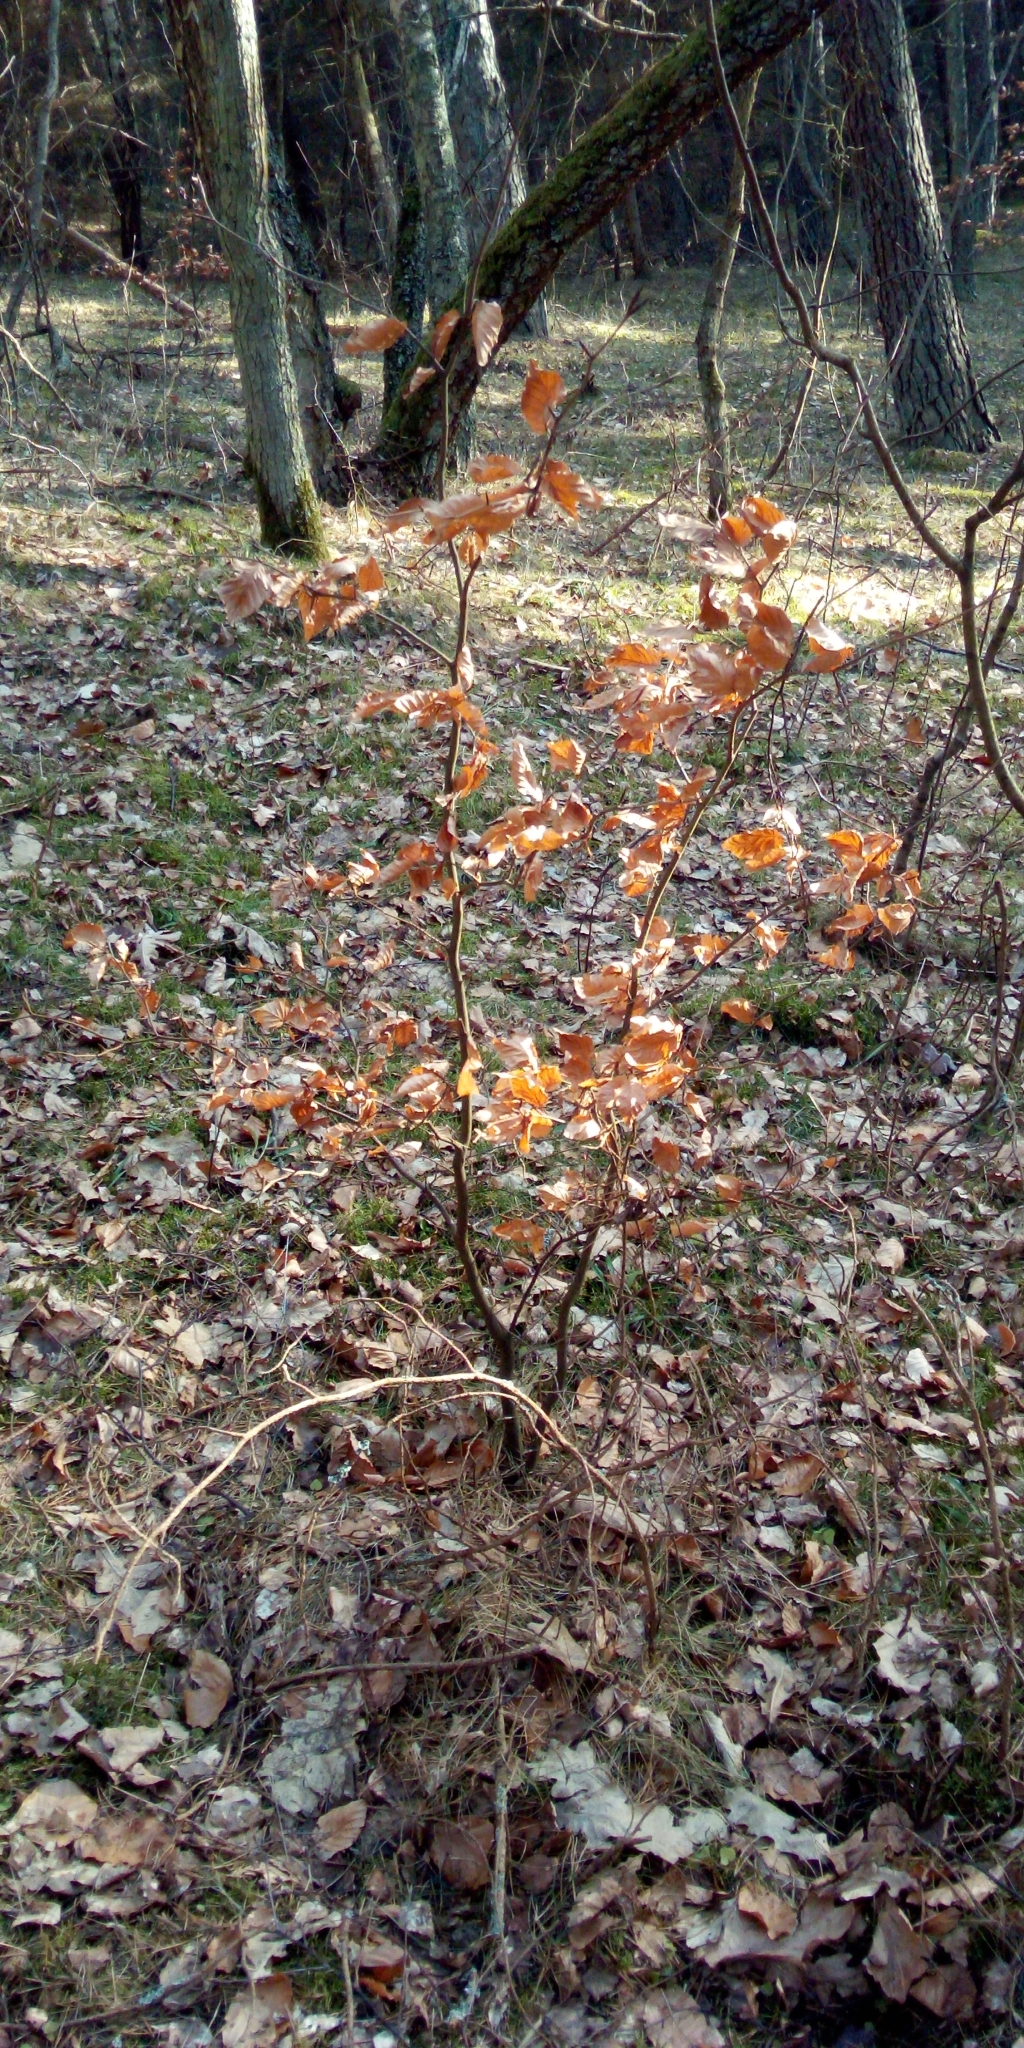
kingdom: Plantae
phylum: Tracheophyta
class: Magnoliopsida
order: Fagales
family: Fagaceae
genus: Fagus
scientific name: Fagus sylvatica
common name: Beech
